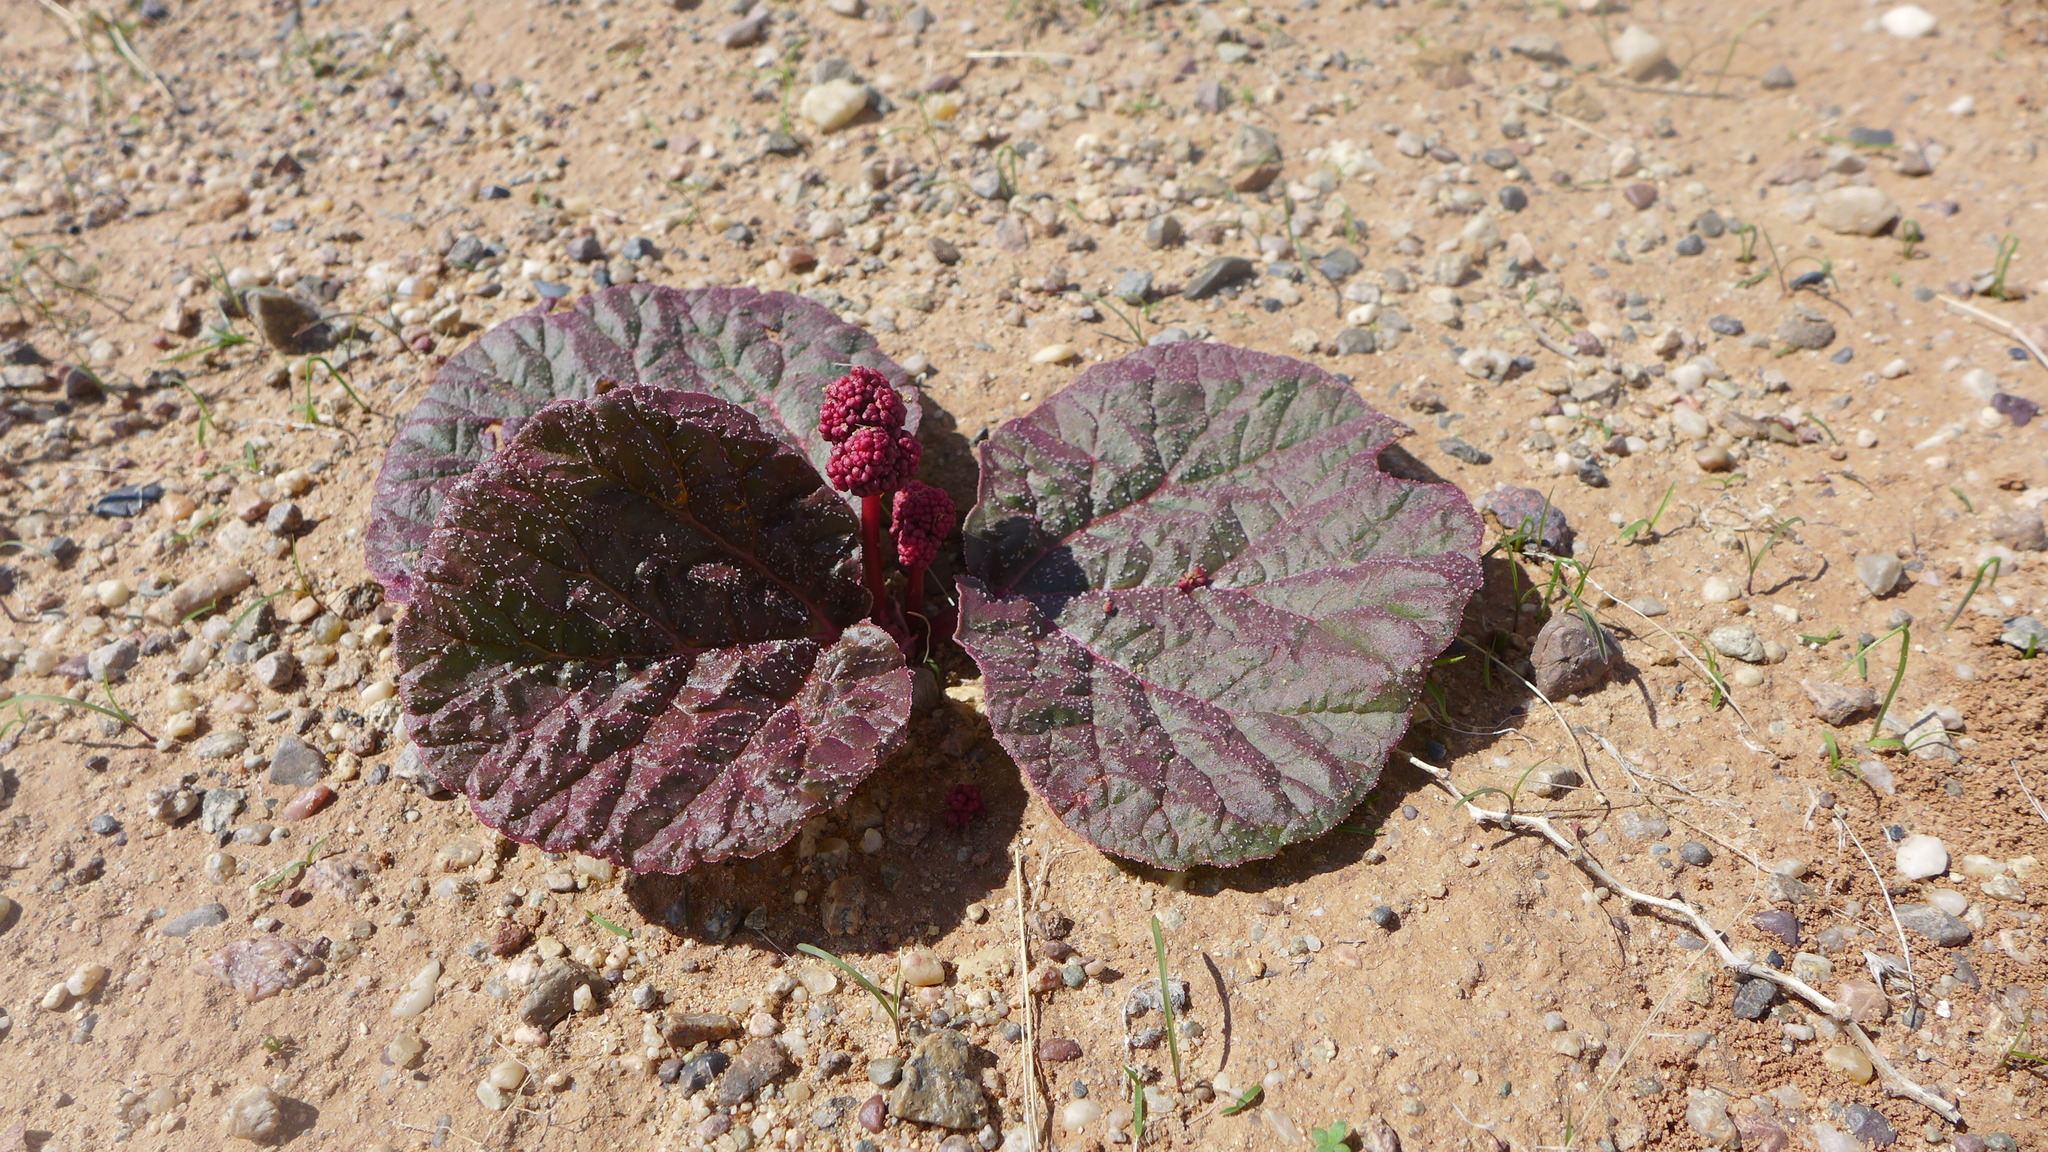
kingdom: Plantae
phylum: Tracheophyta
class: Magnoliopsida
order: Caryophyllales
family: Polygonaceae
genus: Rheum
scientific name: Rheum nanum
